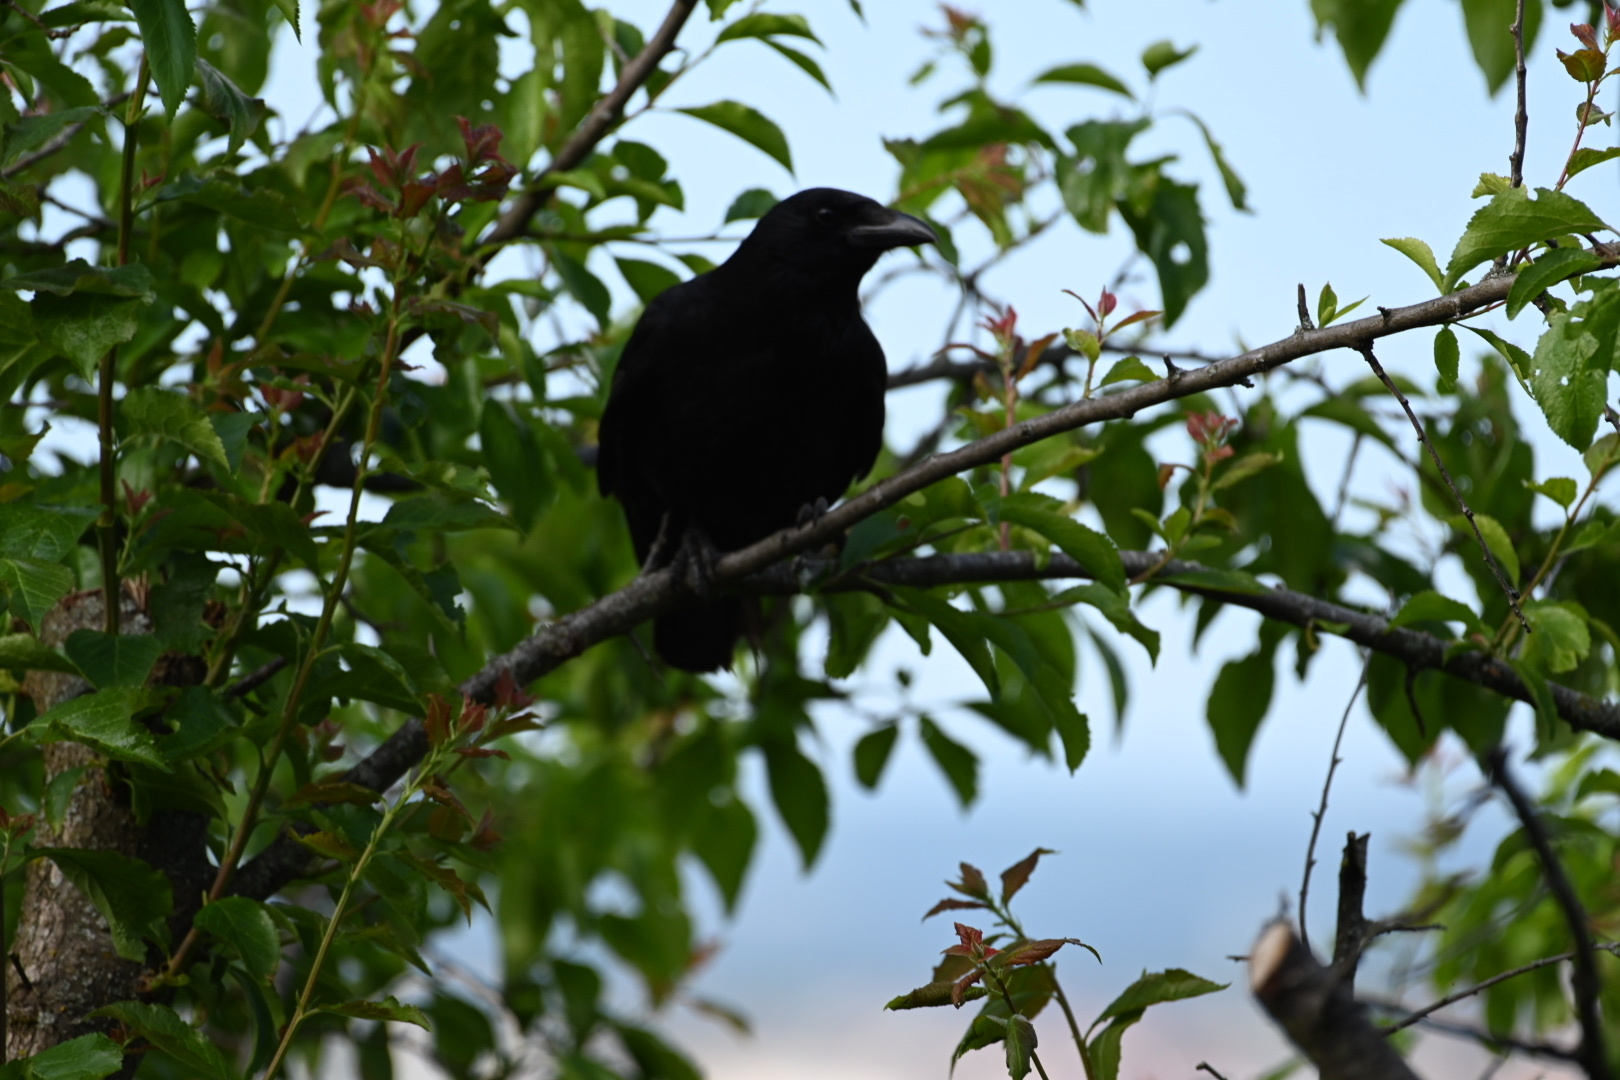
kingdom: Animalia
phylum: Chordata
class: Aves
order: Passeriformes
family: Corvidae
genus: Corvus
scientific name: Corvus corone
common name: Carrion crow
